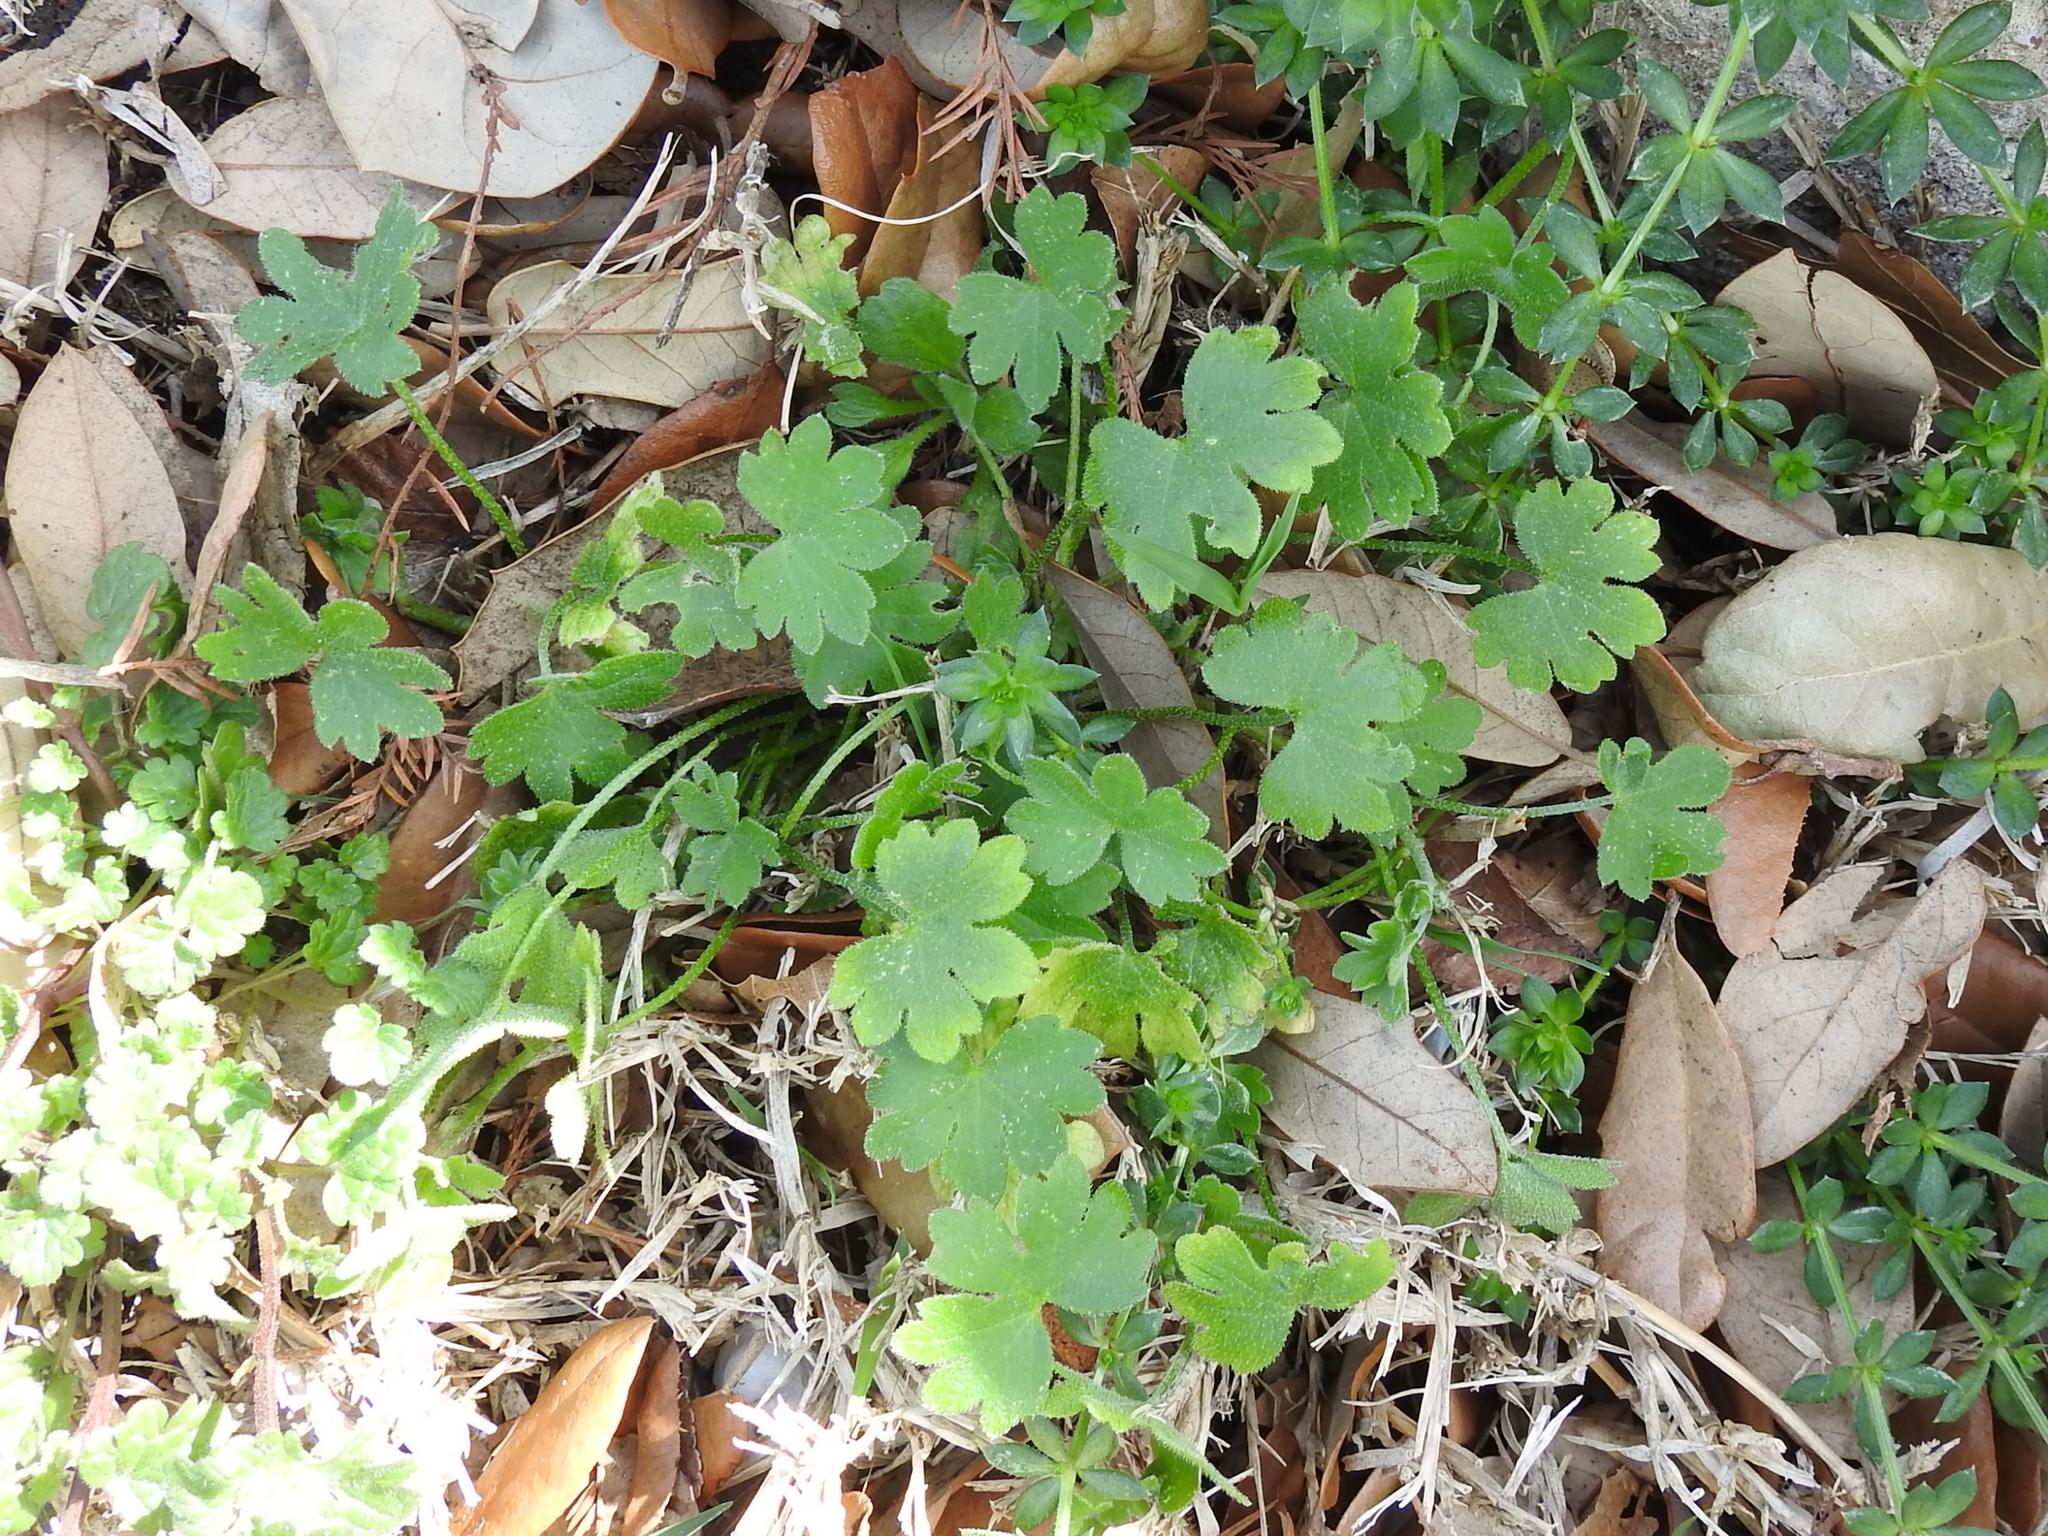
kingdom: Plantae
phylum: Tracheophyta
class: Magnoliopsida
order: Apiales
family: Apiaceae
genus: Bowlesia
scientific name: Bowlesia incana
